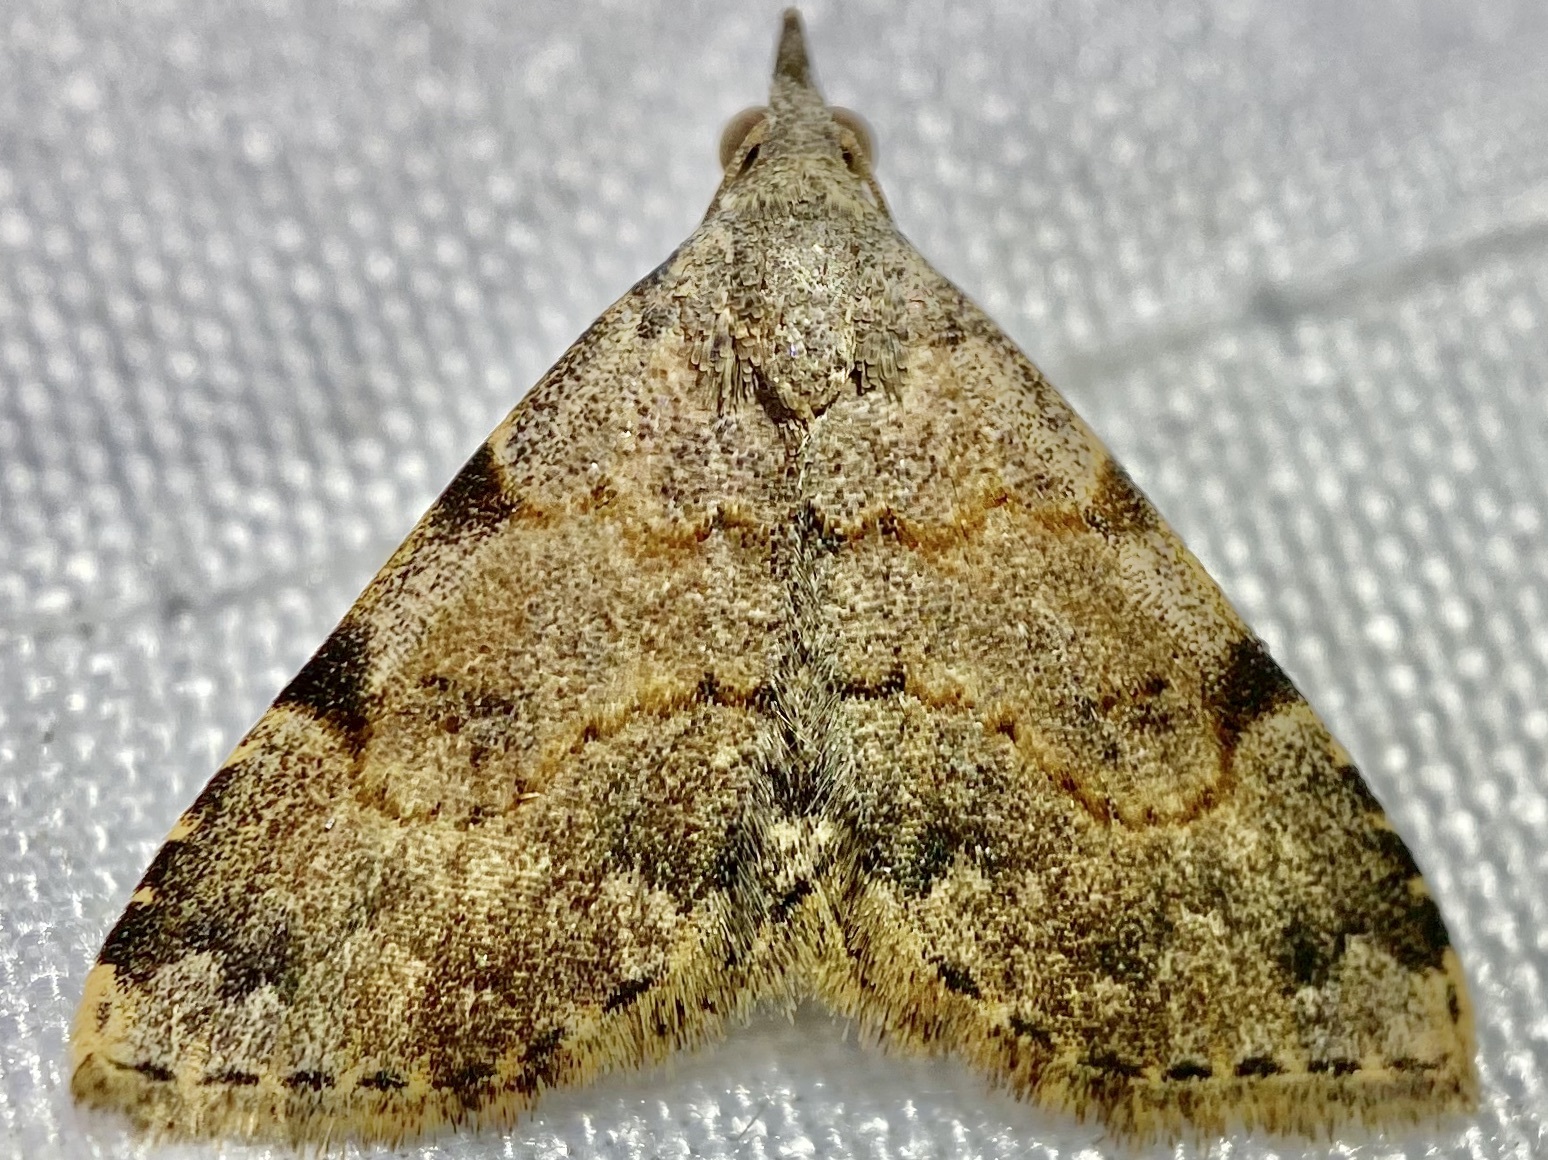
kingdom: Animalia
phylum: Arthropoda
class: Insecta
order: Lepidoptera
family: Erebidae
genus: Nychioptera
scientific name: Nychioptera accola
